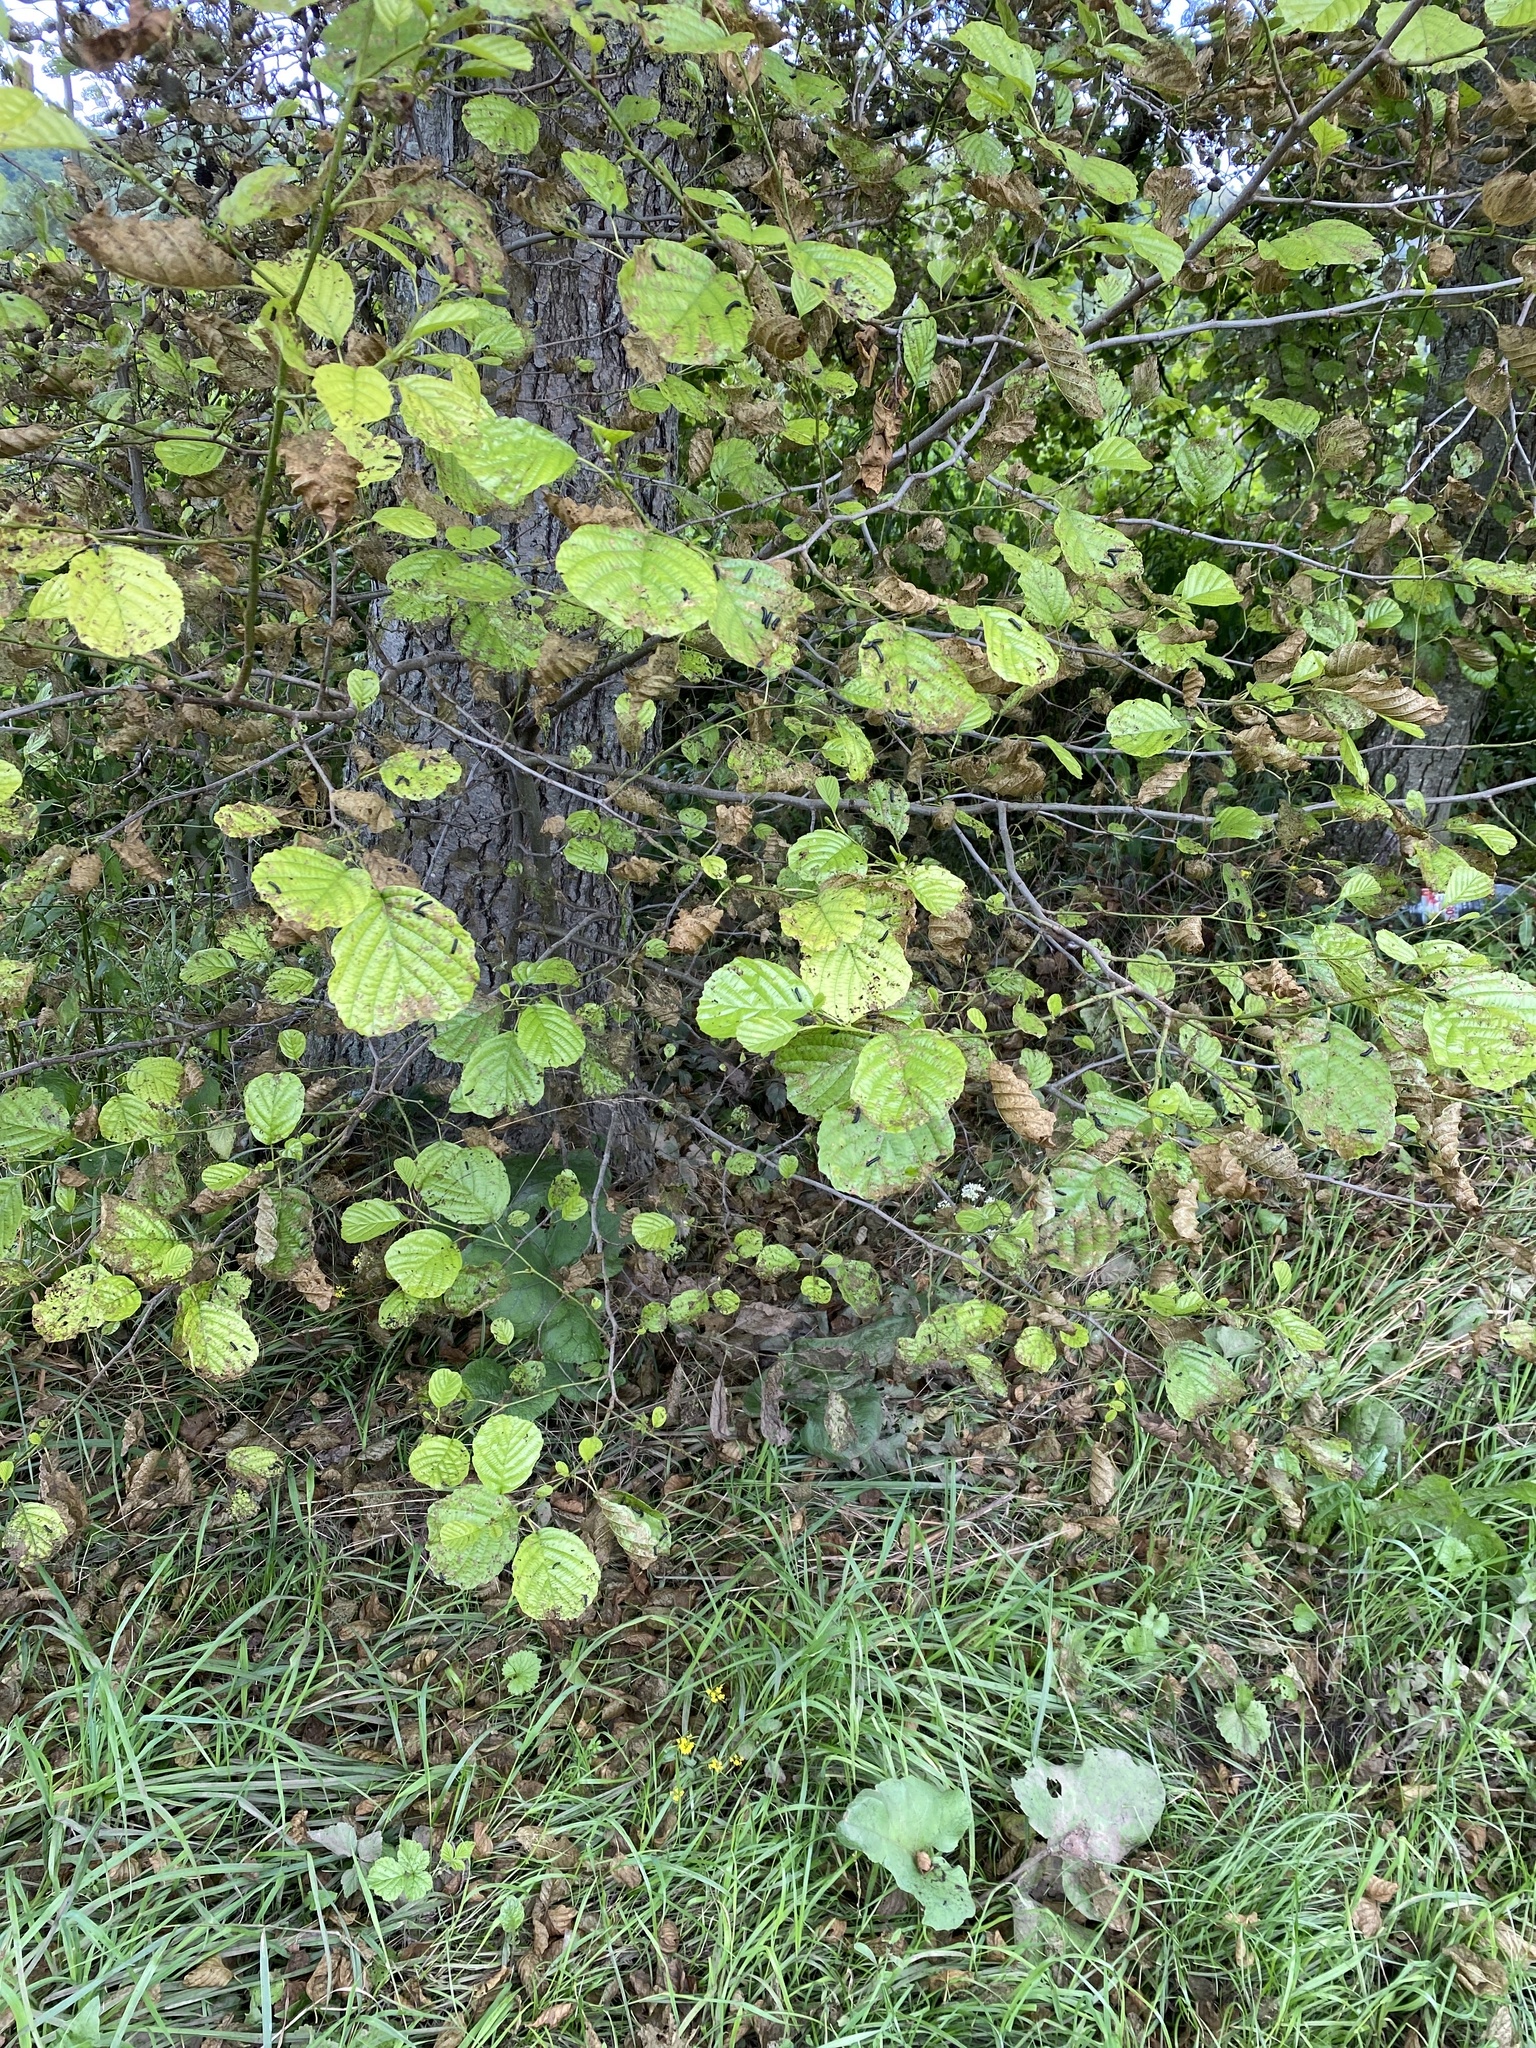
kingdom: Plantae
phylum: Tracheophyta
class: Magnoliopsida
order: Fagales
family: Betulaceae
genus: Alnus
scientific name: Alnus glutinosa
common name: Black alder
